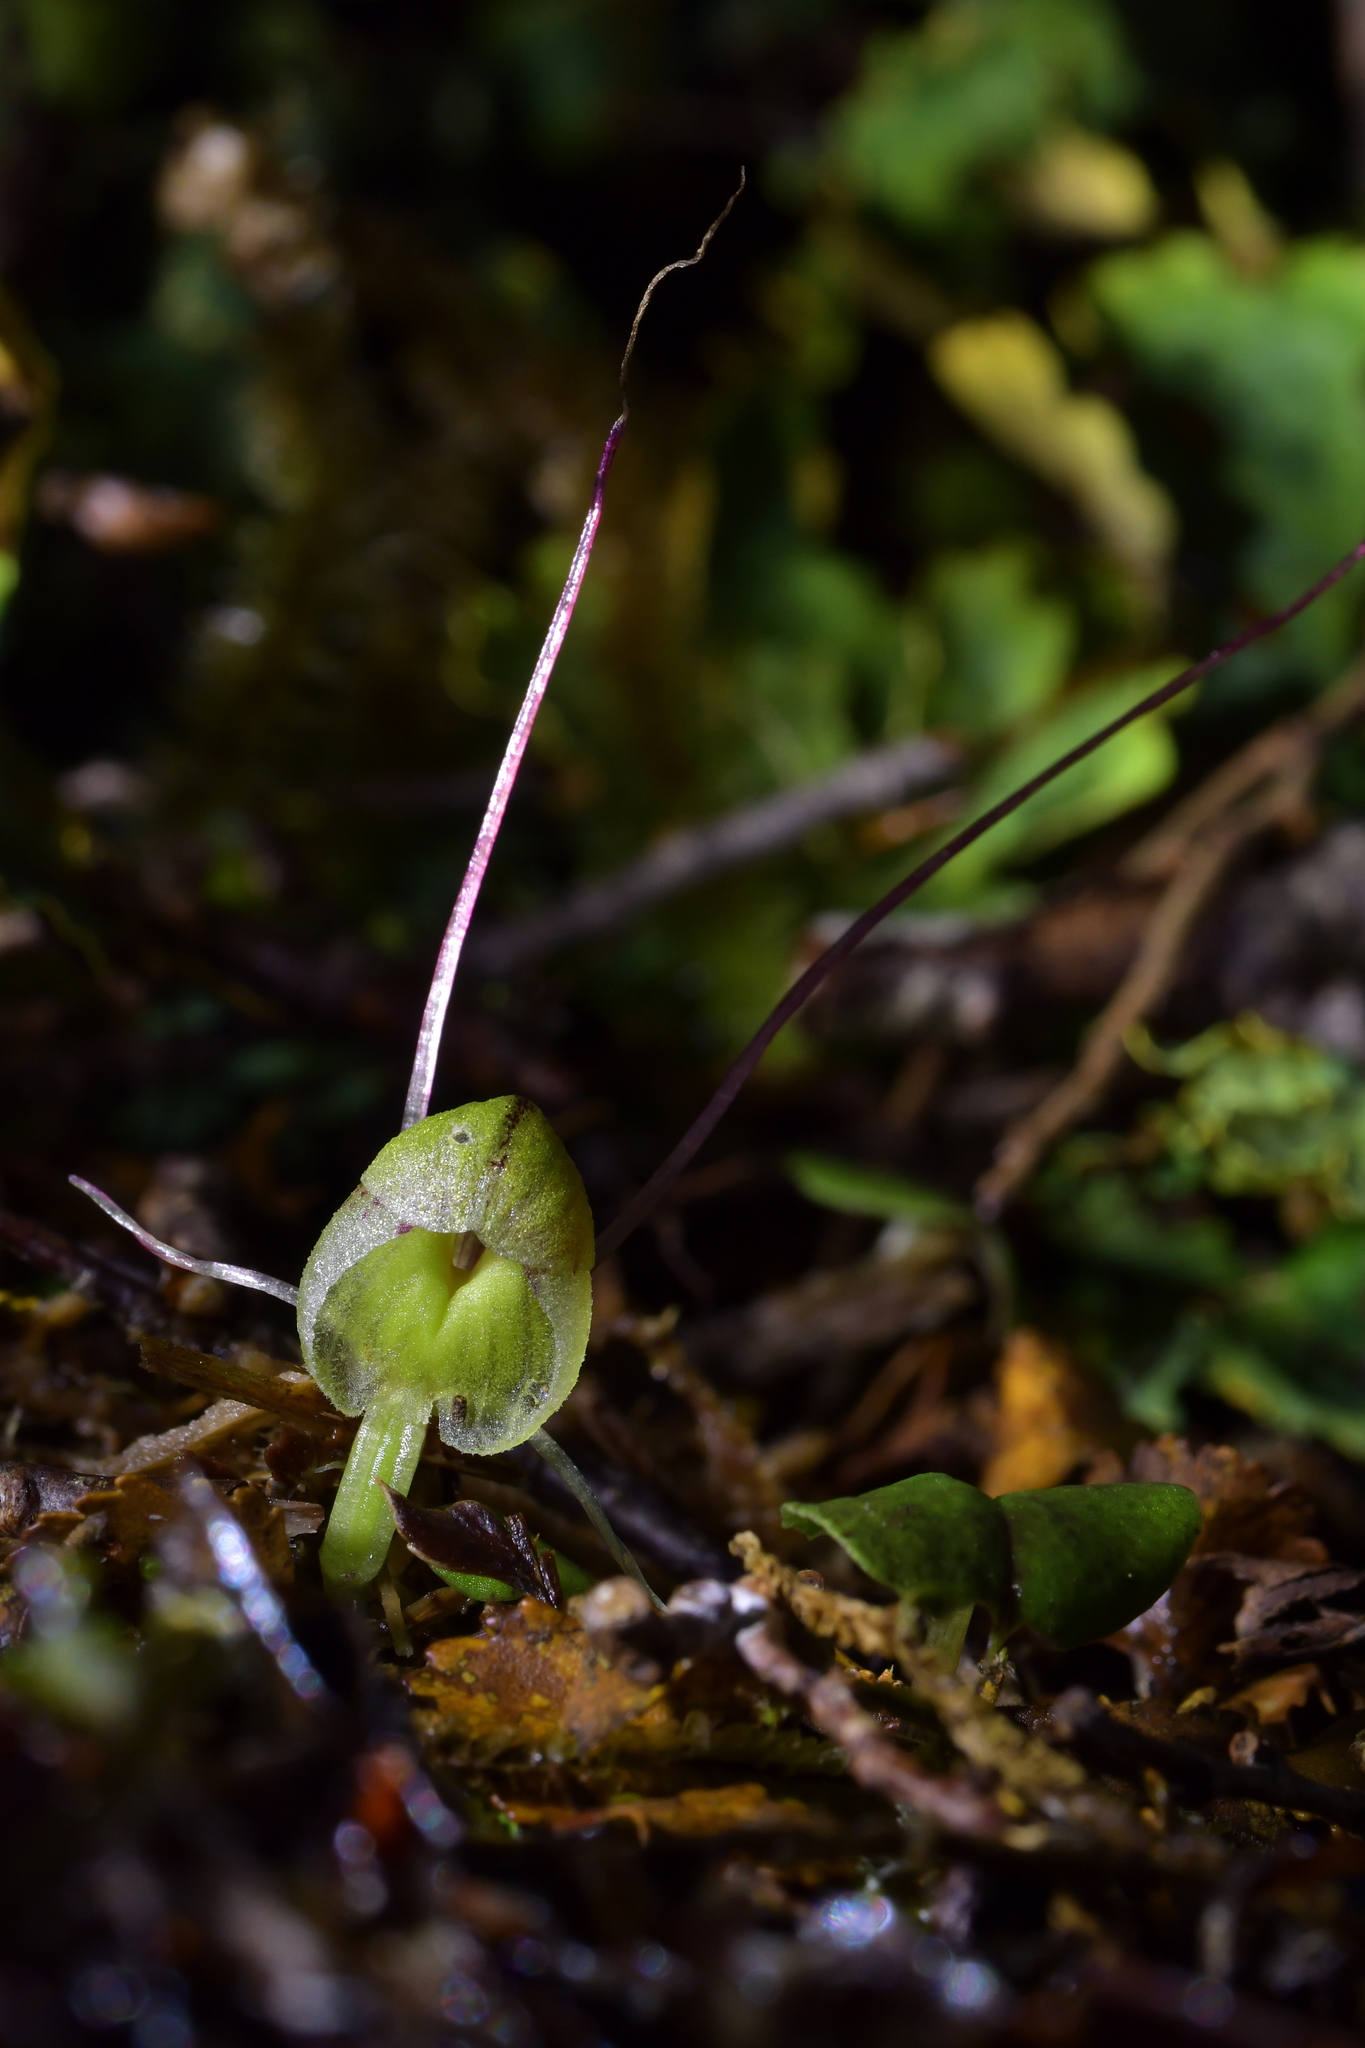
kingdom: Plantae
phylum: Tracheophyta
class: Liliopsida
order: Asparagales
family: Orchidaceae
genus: Corybas
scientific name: Corybas walliae
